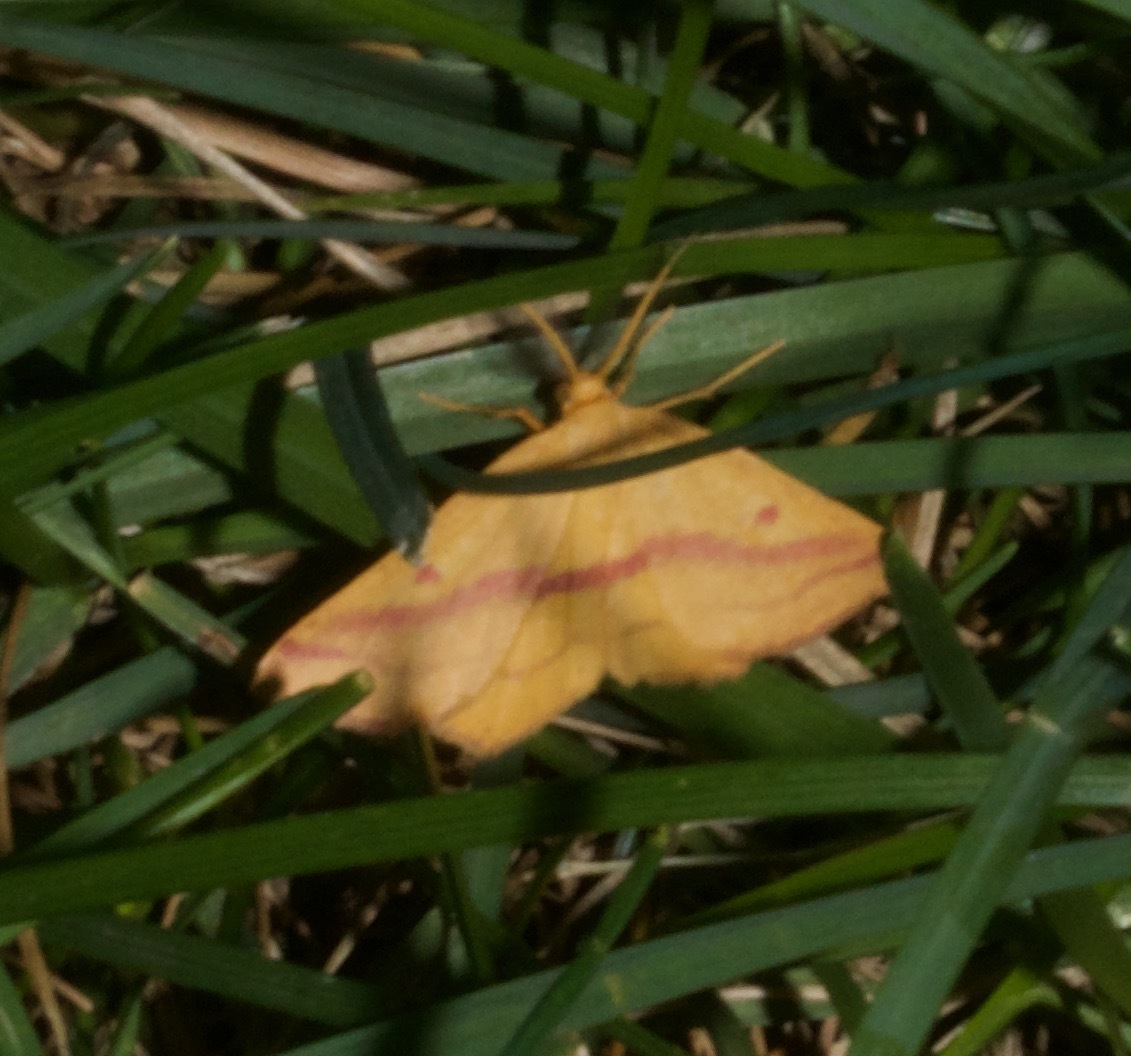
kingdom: Animalia
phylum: Arthropoda
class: Insecta
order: Lepidoptera
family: Geometridae
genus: Haematopis
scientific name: Haematopis grataria
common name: Chickweed geometer
